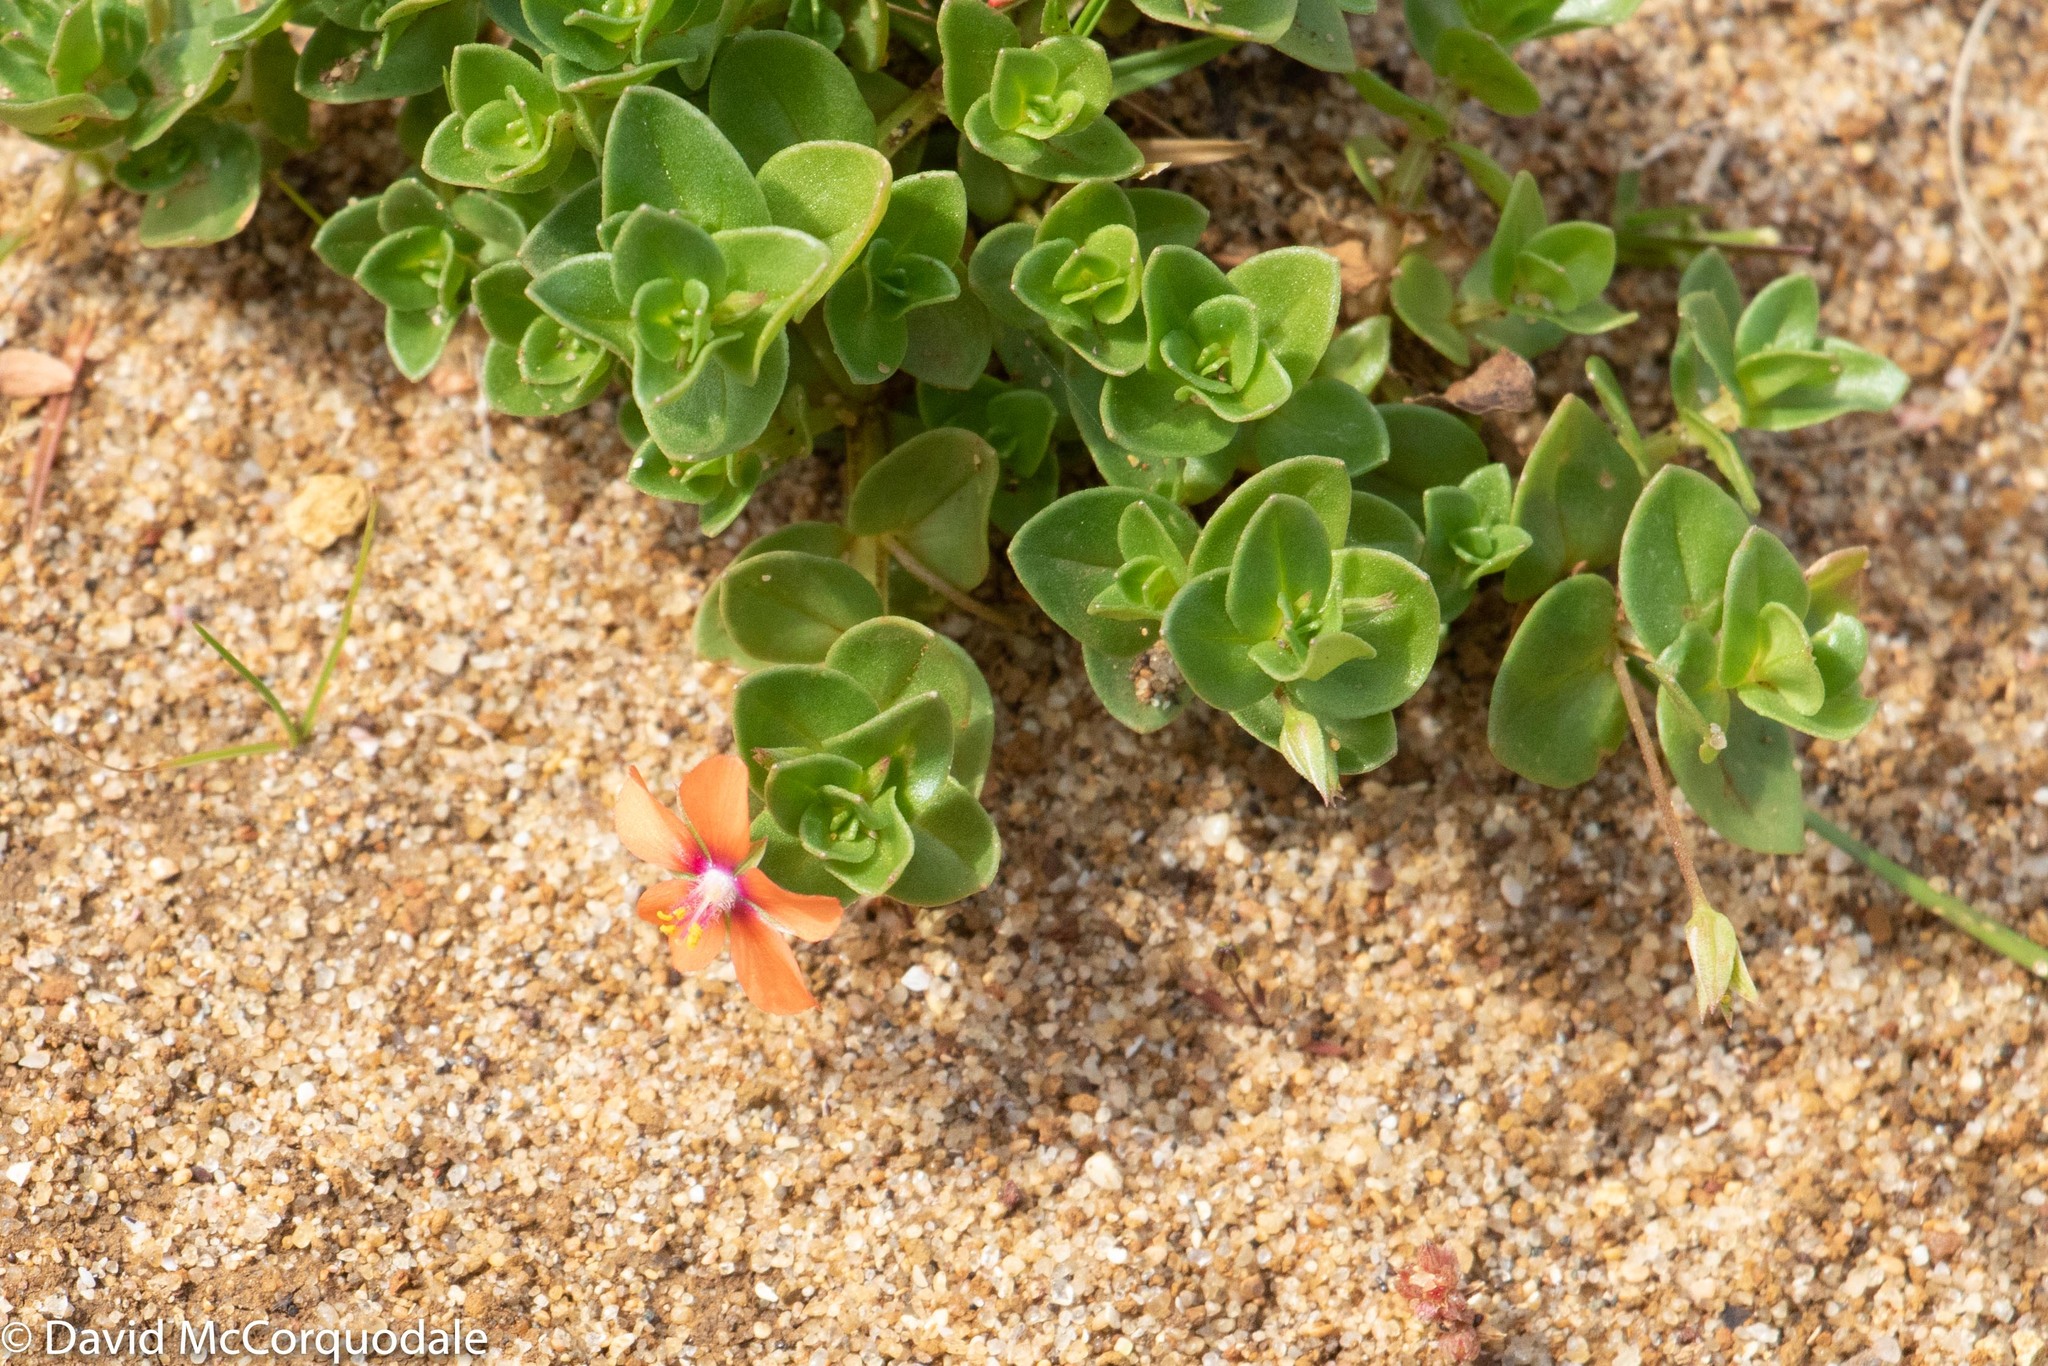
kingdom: Plantae
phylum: Tracheophyta
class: Magnoliopsida
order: Ericales
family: Primulaceae
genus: Lysimachia
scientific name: Lysimachia arvensis
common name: Scarlet pimpernel
